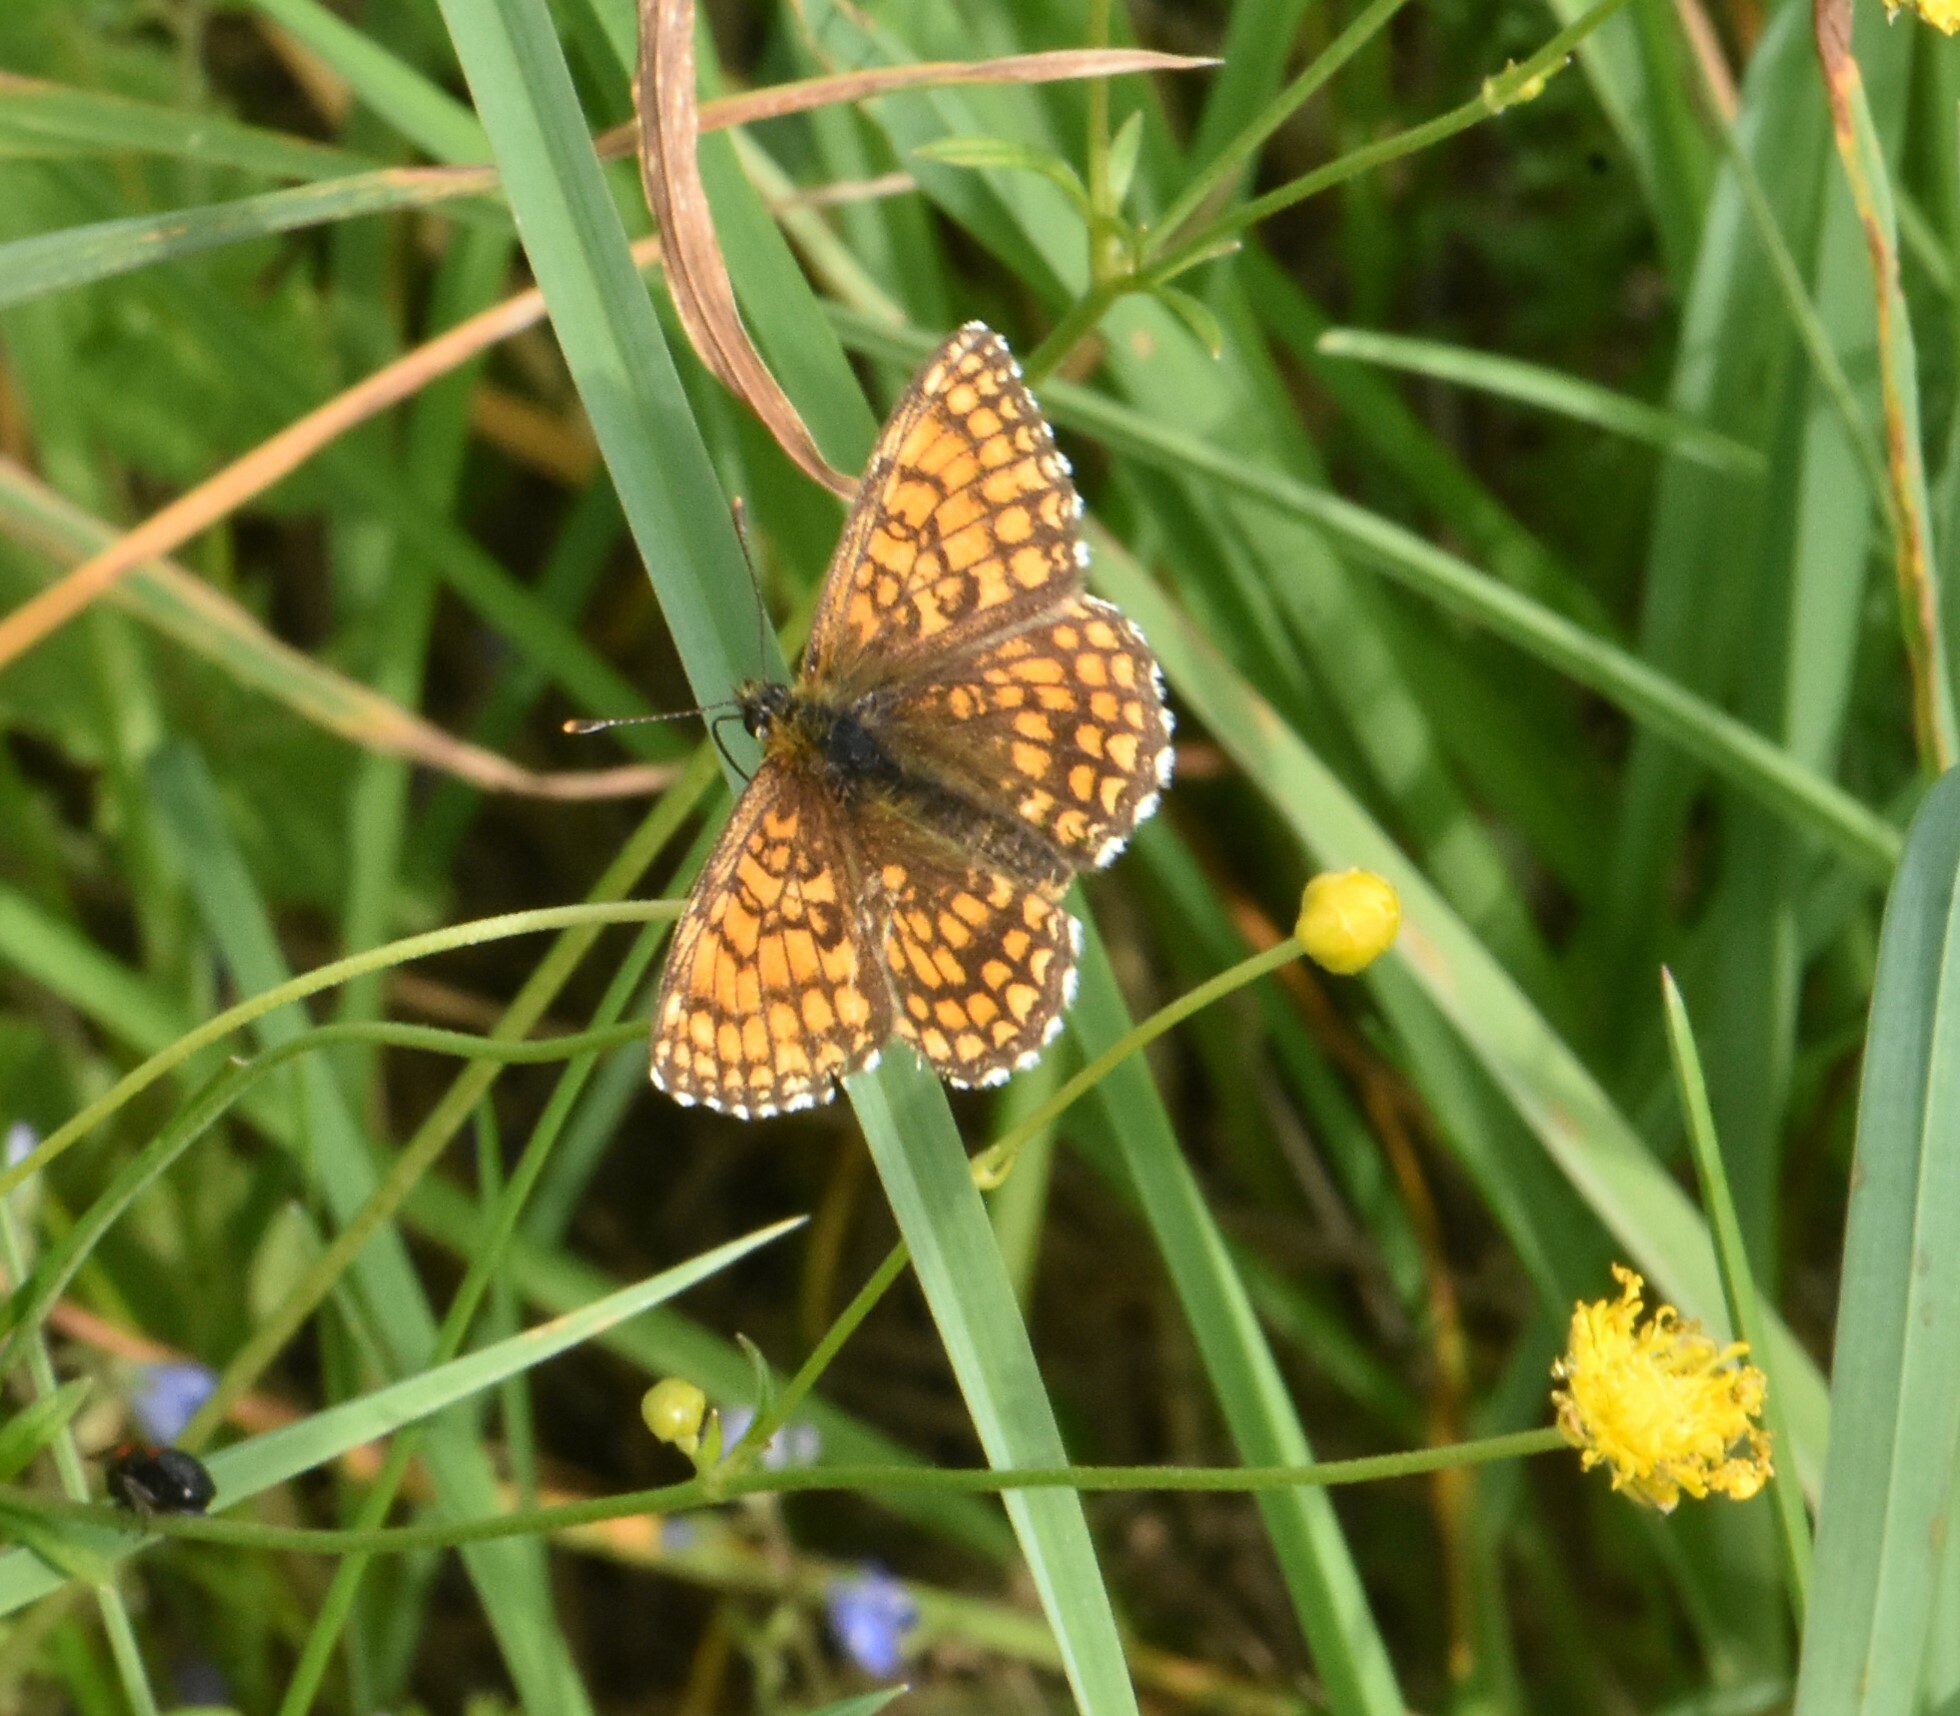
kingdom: Animalia
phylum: Arthropoda
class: Insecta
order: Lepidoptera
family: Nymphalidae
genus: Melitaea
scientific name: Melitaea athalia
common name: Heath fritillary
